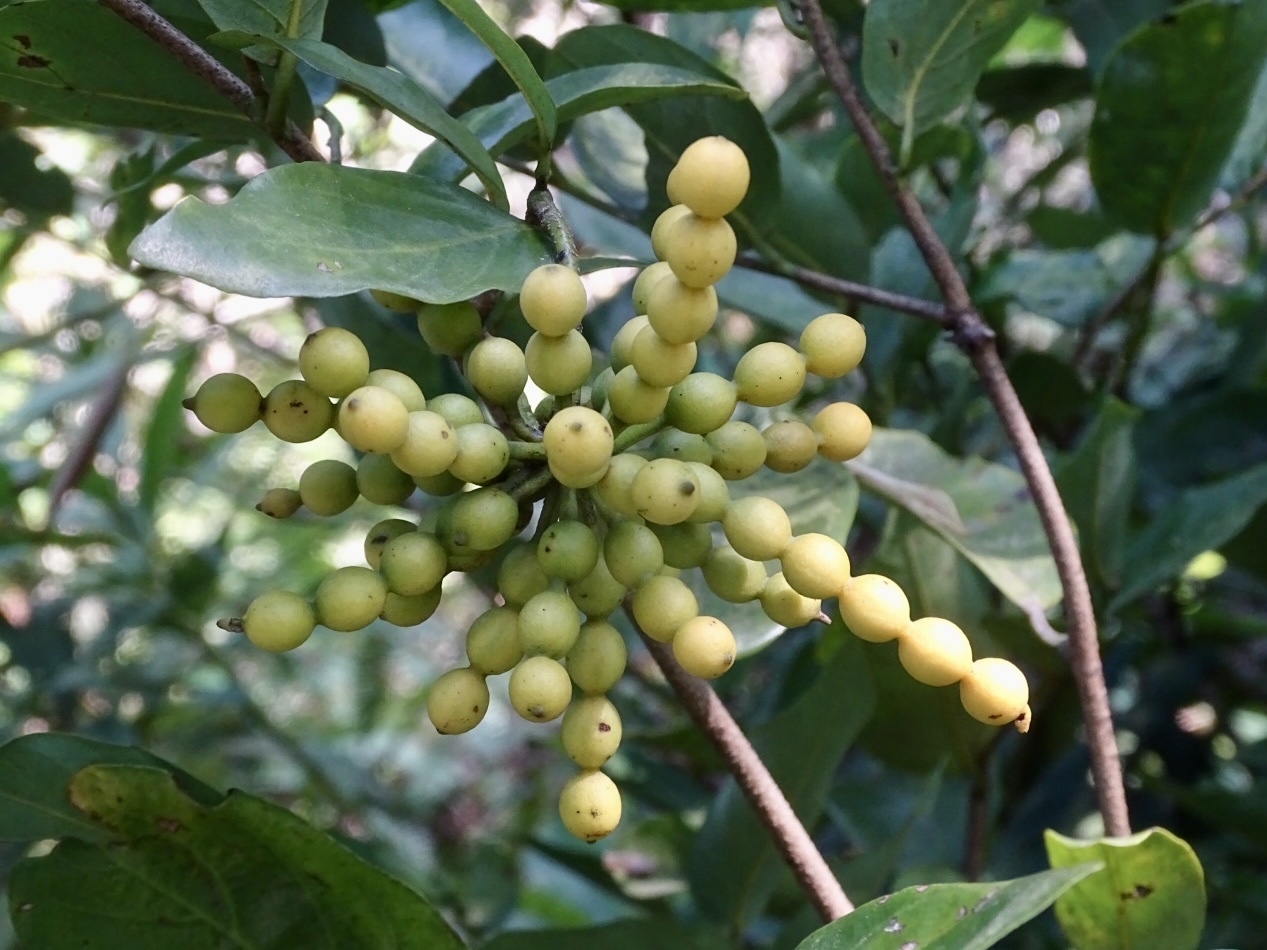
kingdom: Plantae
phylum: Tracheophyta
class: Magnoliopsida
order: Magnoliales
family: Annonaceae
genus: Desmos
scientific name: Desmos chinensis
